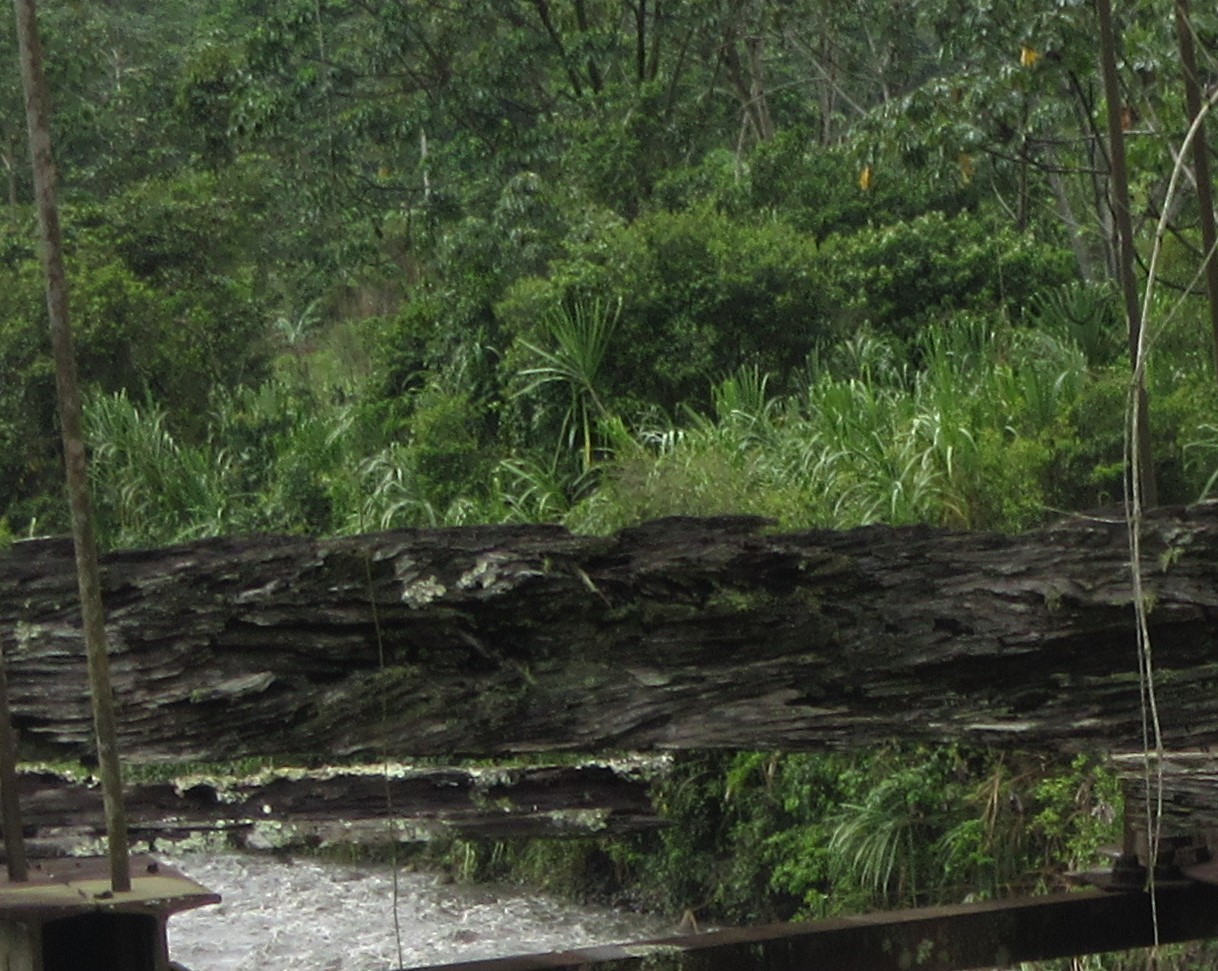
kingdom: Plantae
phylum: Tracheophyta
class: Liliopsida
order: Poales
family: Poaceae
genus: Gynerium
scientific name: Gynerium sagittatum
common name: Wild cane
